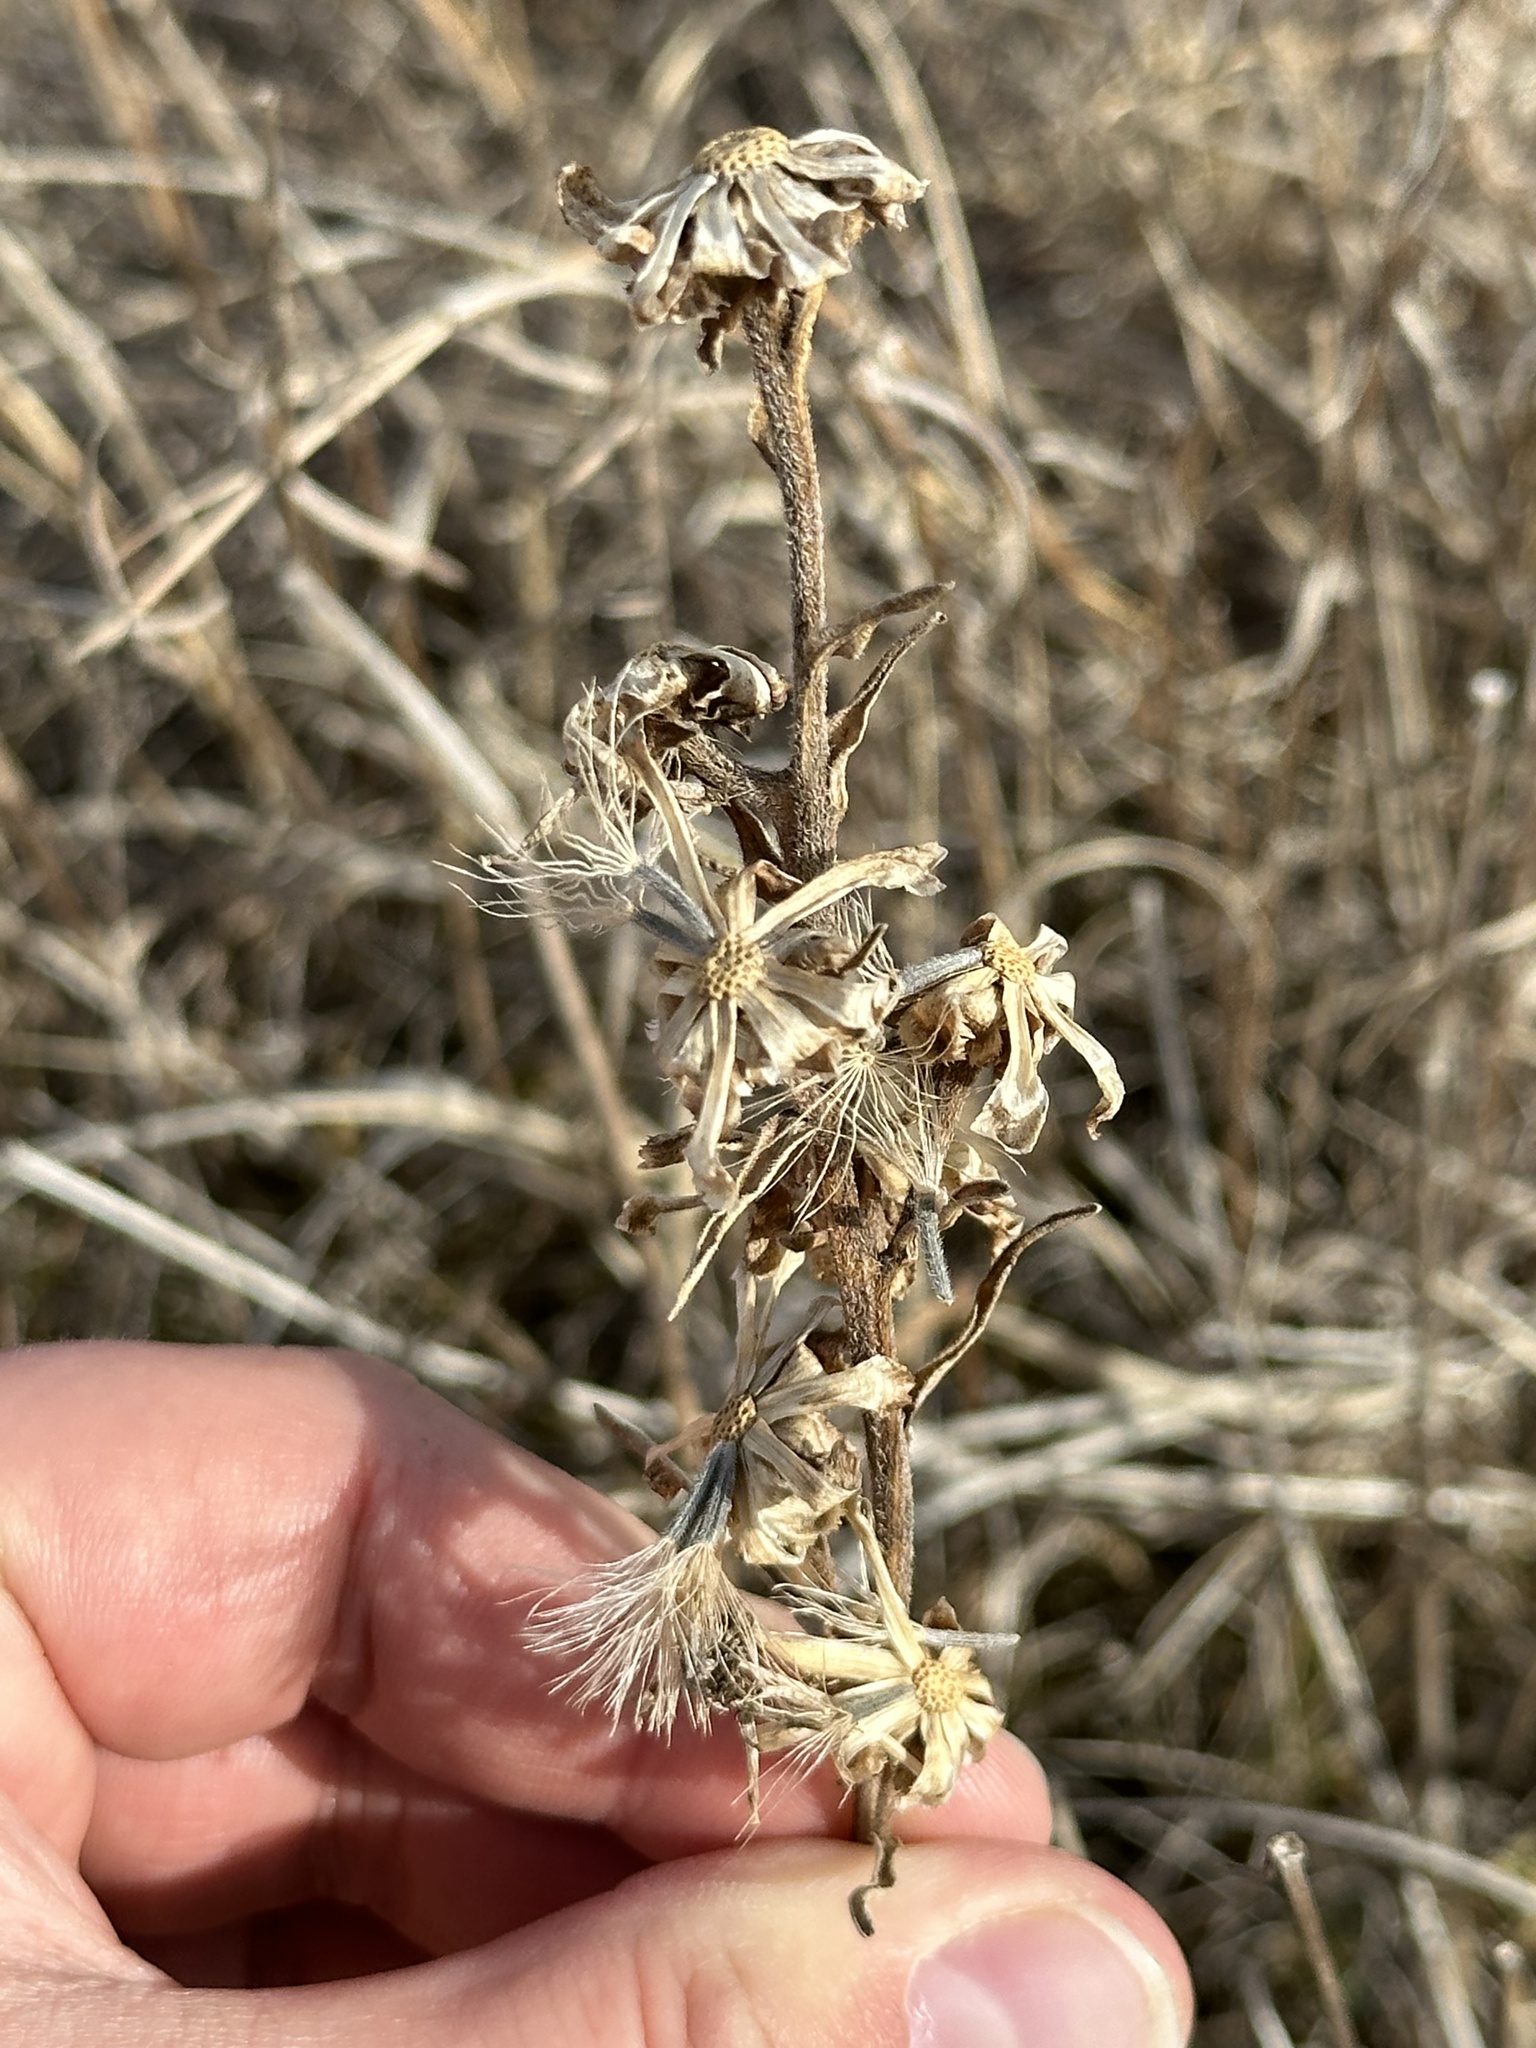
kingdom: Plantae
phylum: Tracheophyta
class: Magnoliopsida
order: Asterales
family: Asteraceae
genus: Liatris
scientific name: Liatris ligulistylis
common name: Northern plains gayfeather
